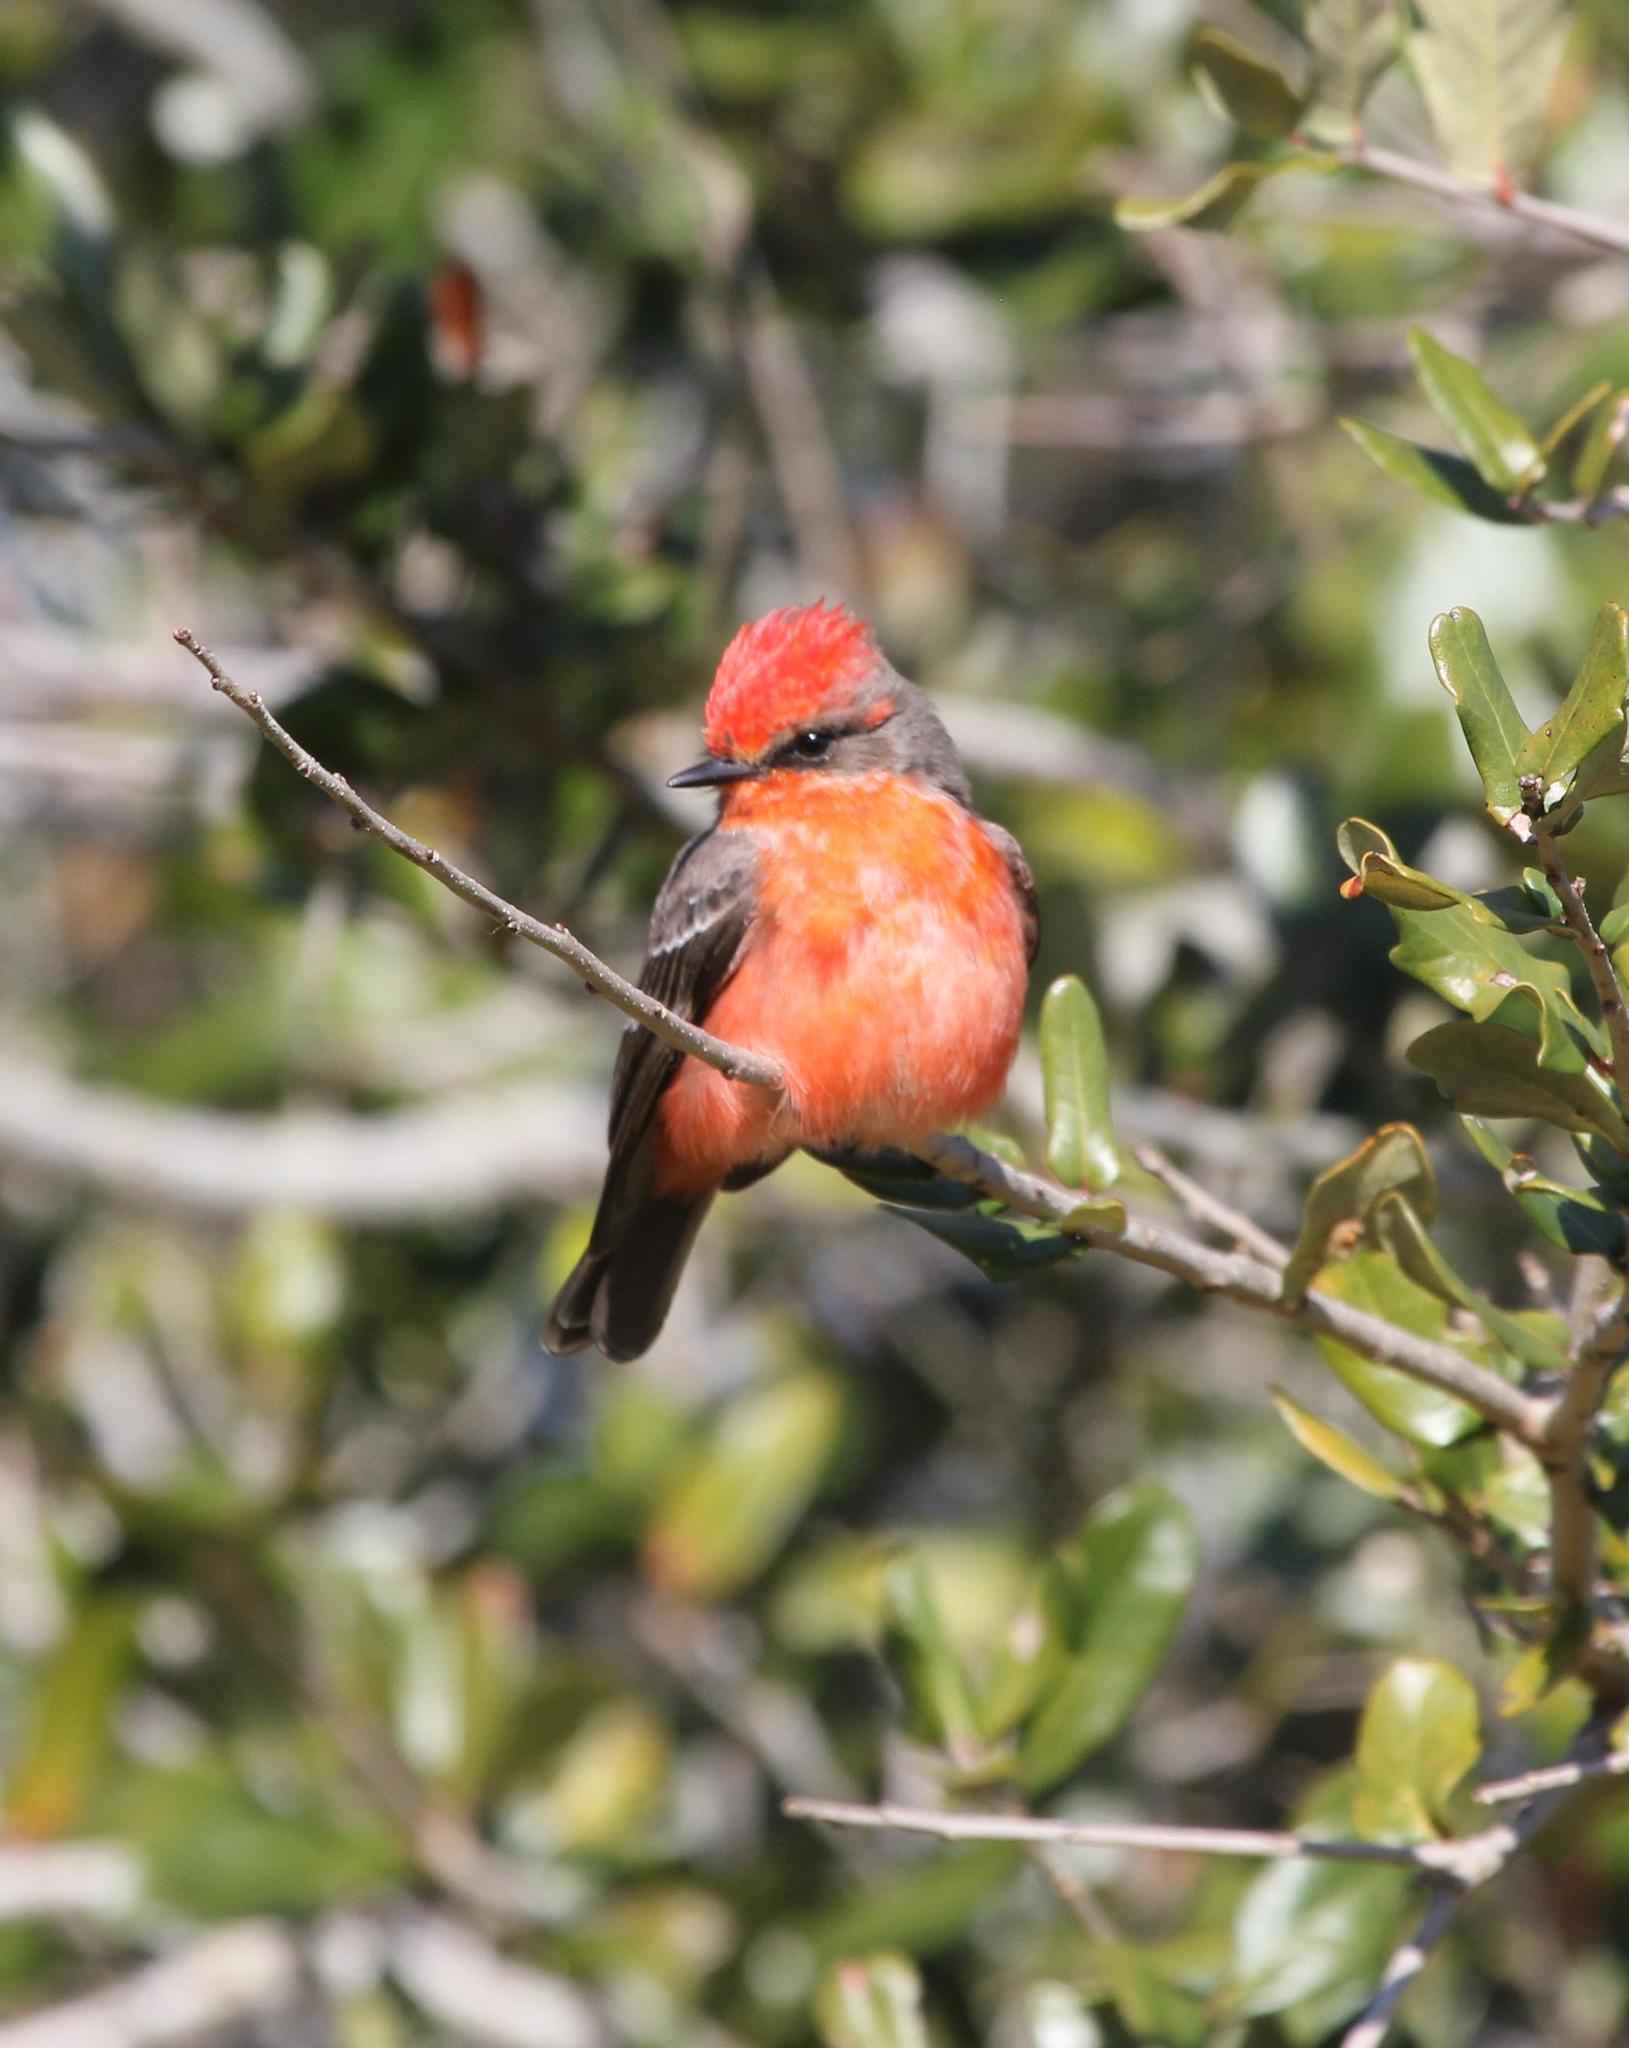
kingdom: Animalia
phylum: Chordata
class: Aves
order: Passeriformes
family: Tyrannidae
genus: Pyrocephalus
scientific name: Pyrocephalus rubinus
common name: Vermilion flycatcher
